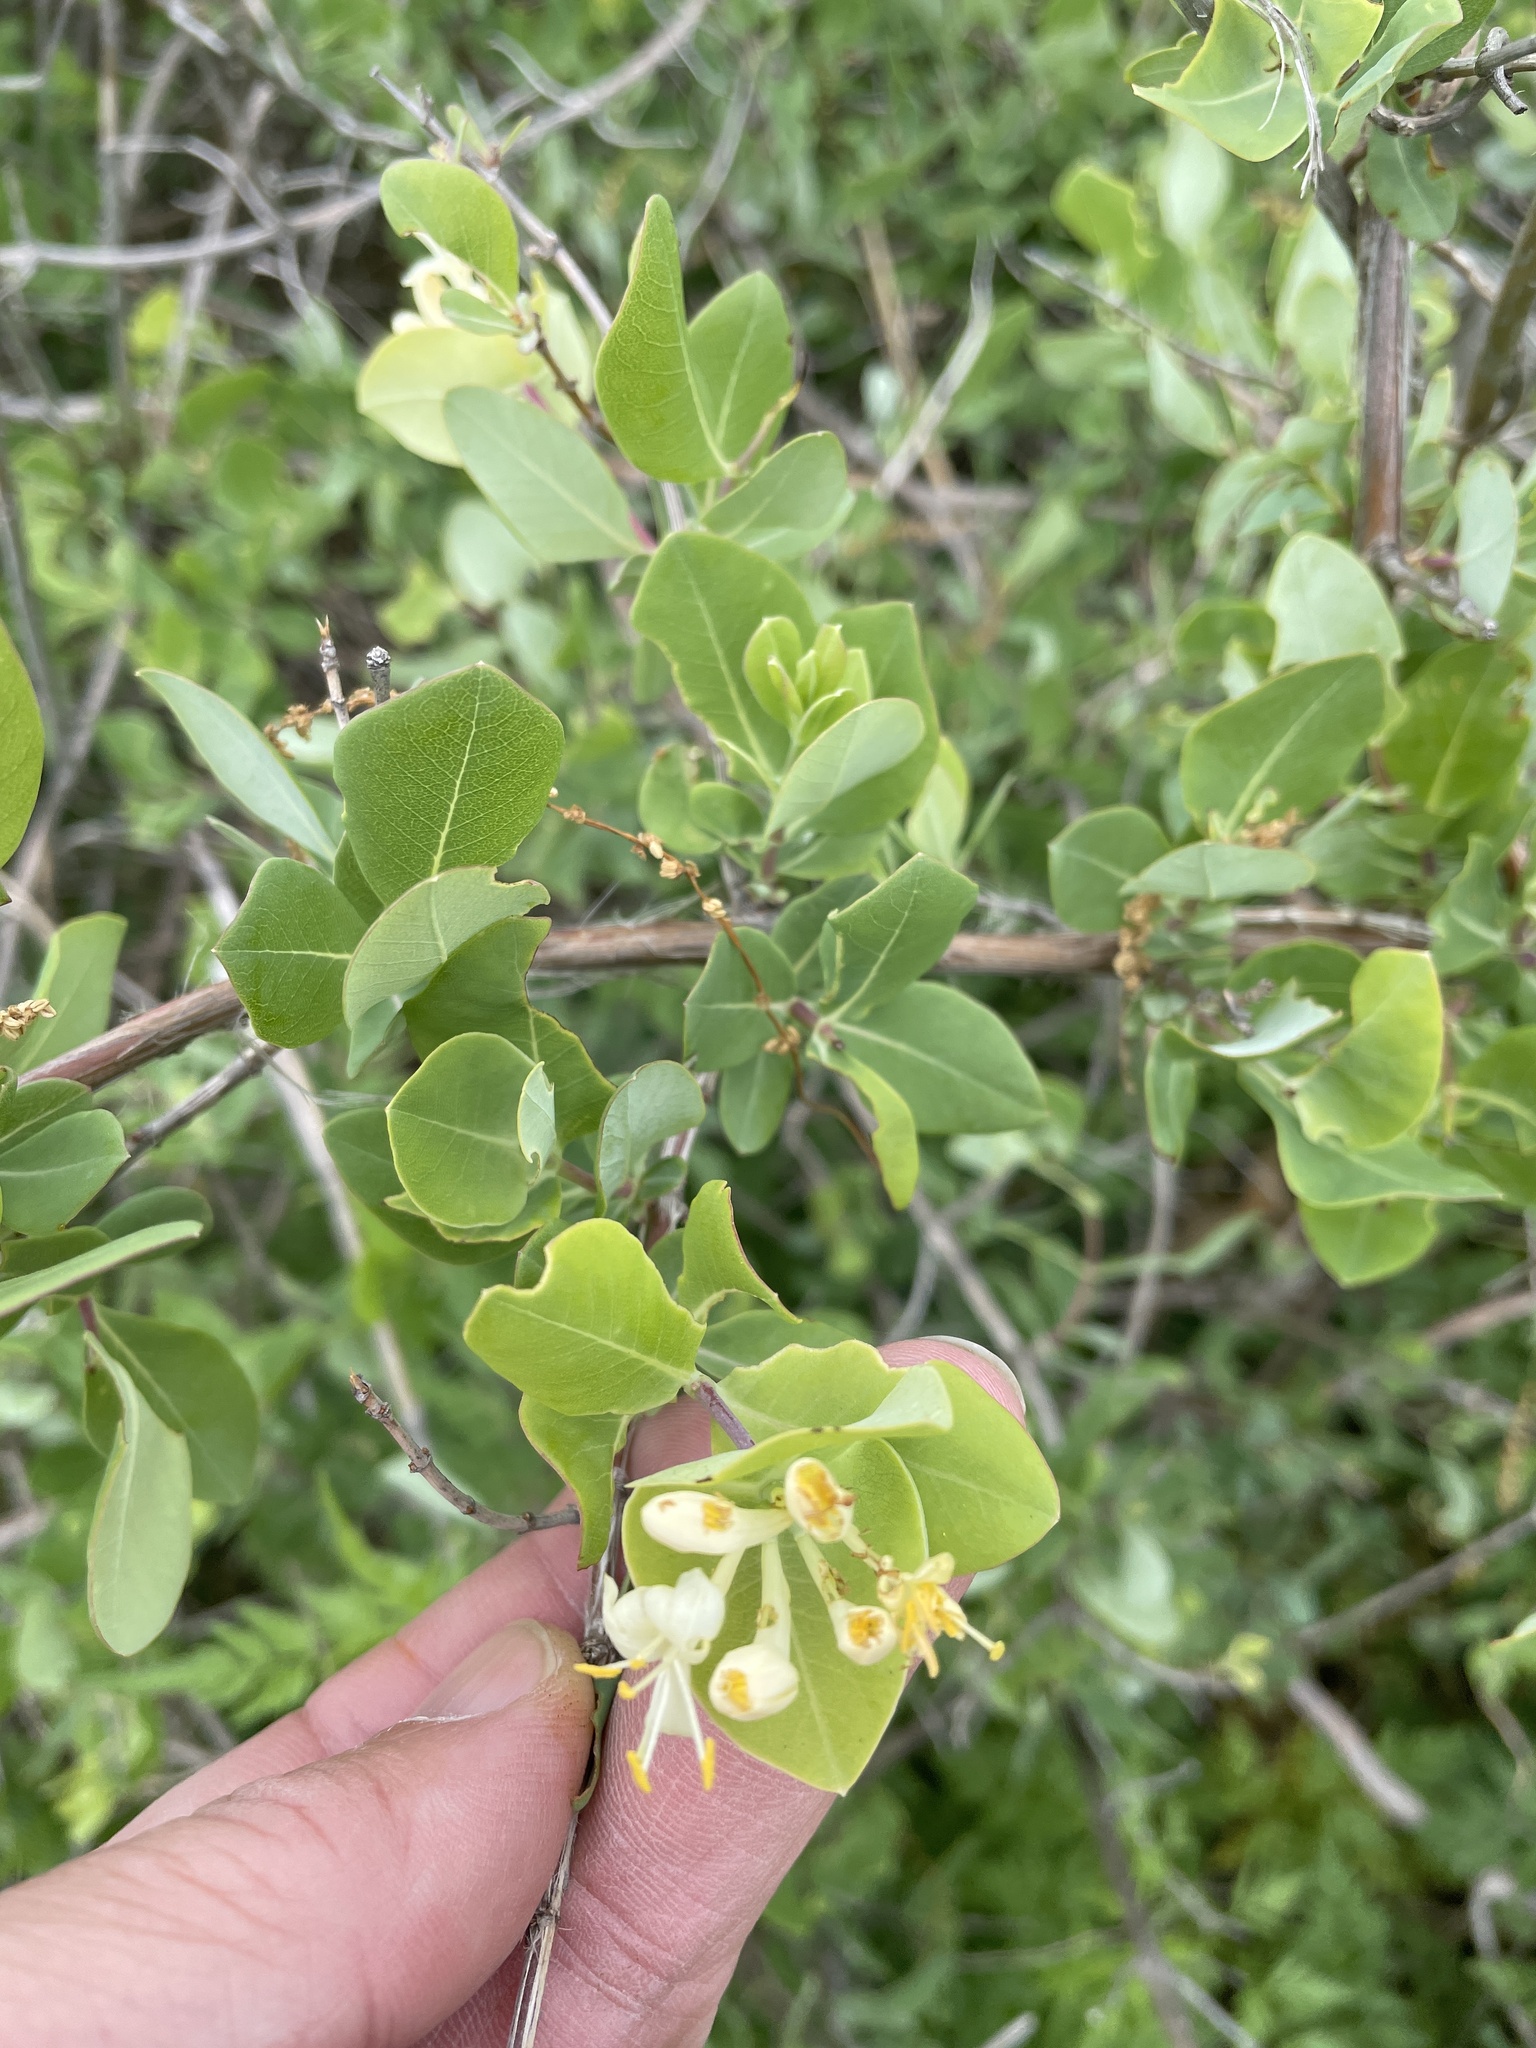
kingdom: Plantae
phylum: Tracheophyta
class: Magnoliopsida
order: Dipsacales
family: Caprifoliaceae
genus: Lonicera
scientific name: Lonicera albiflora
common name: White honeysuckle
